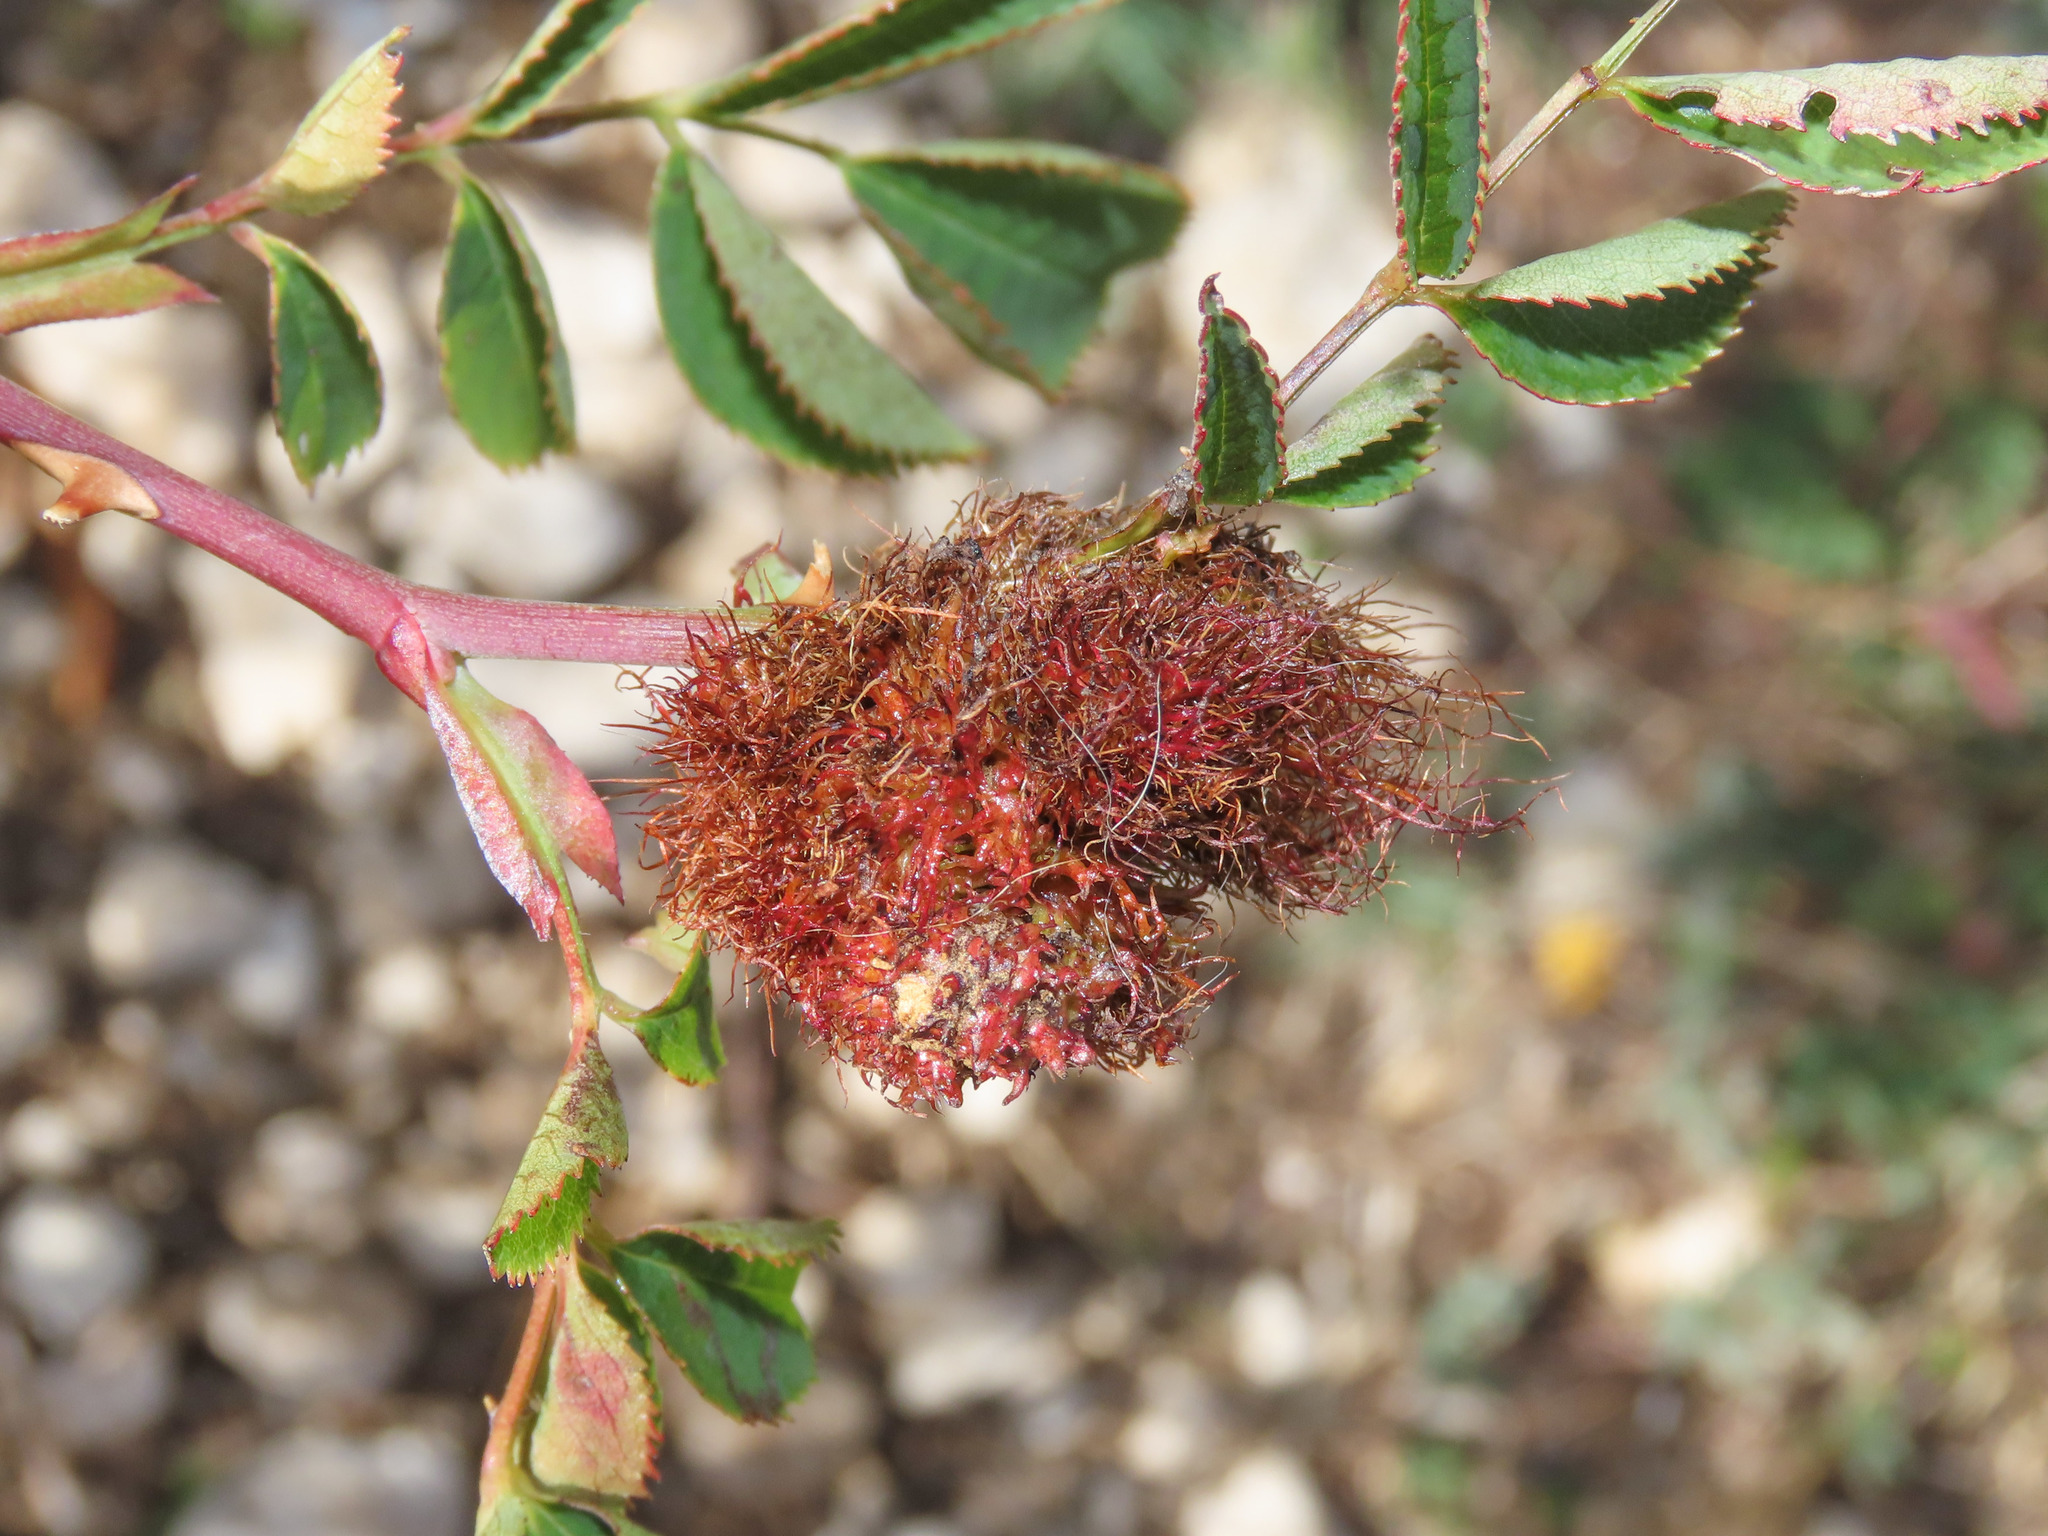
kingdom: Animalia
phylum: Arthropoda
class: Insecta
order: Hymenoptera
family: Cynipidae
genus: Diplolepis
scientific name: Diplolepis rosae
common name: Bedeguar gall
